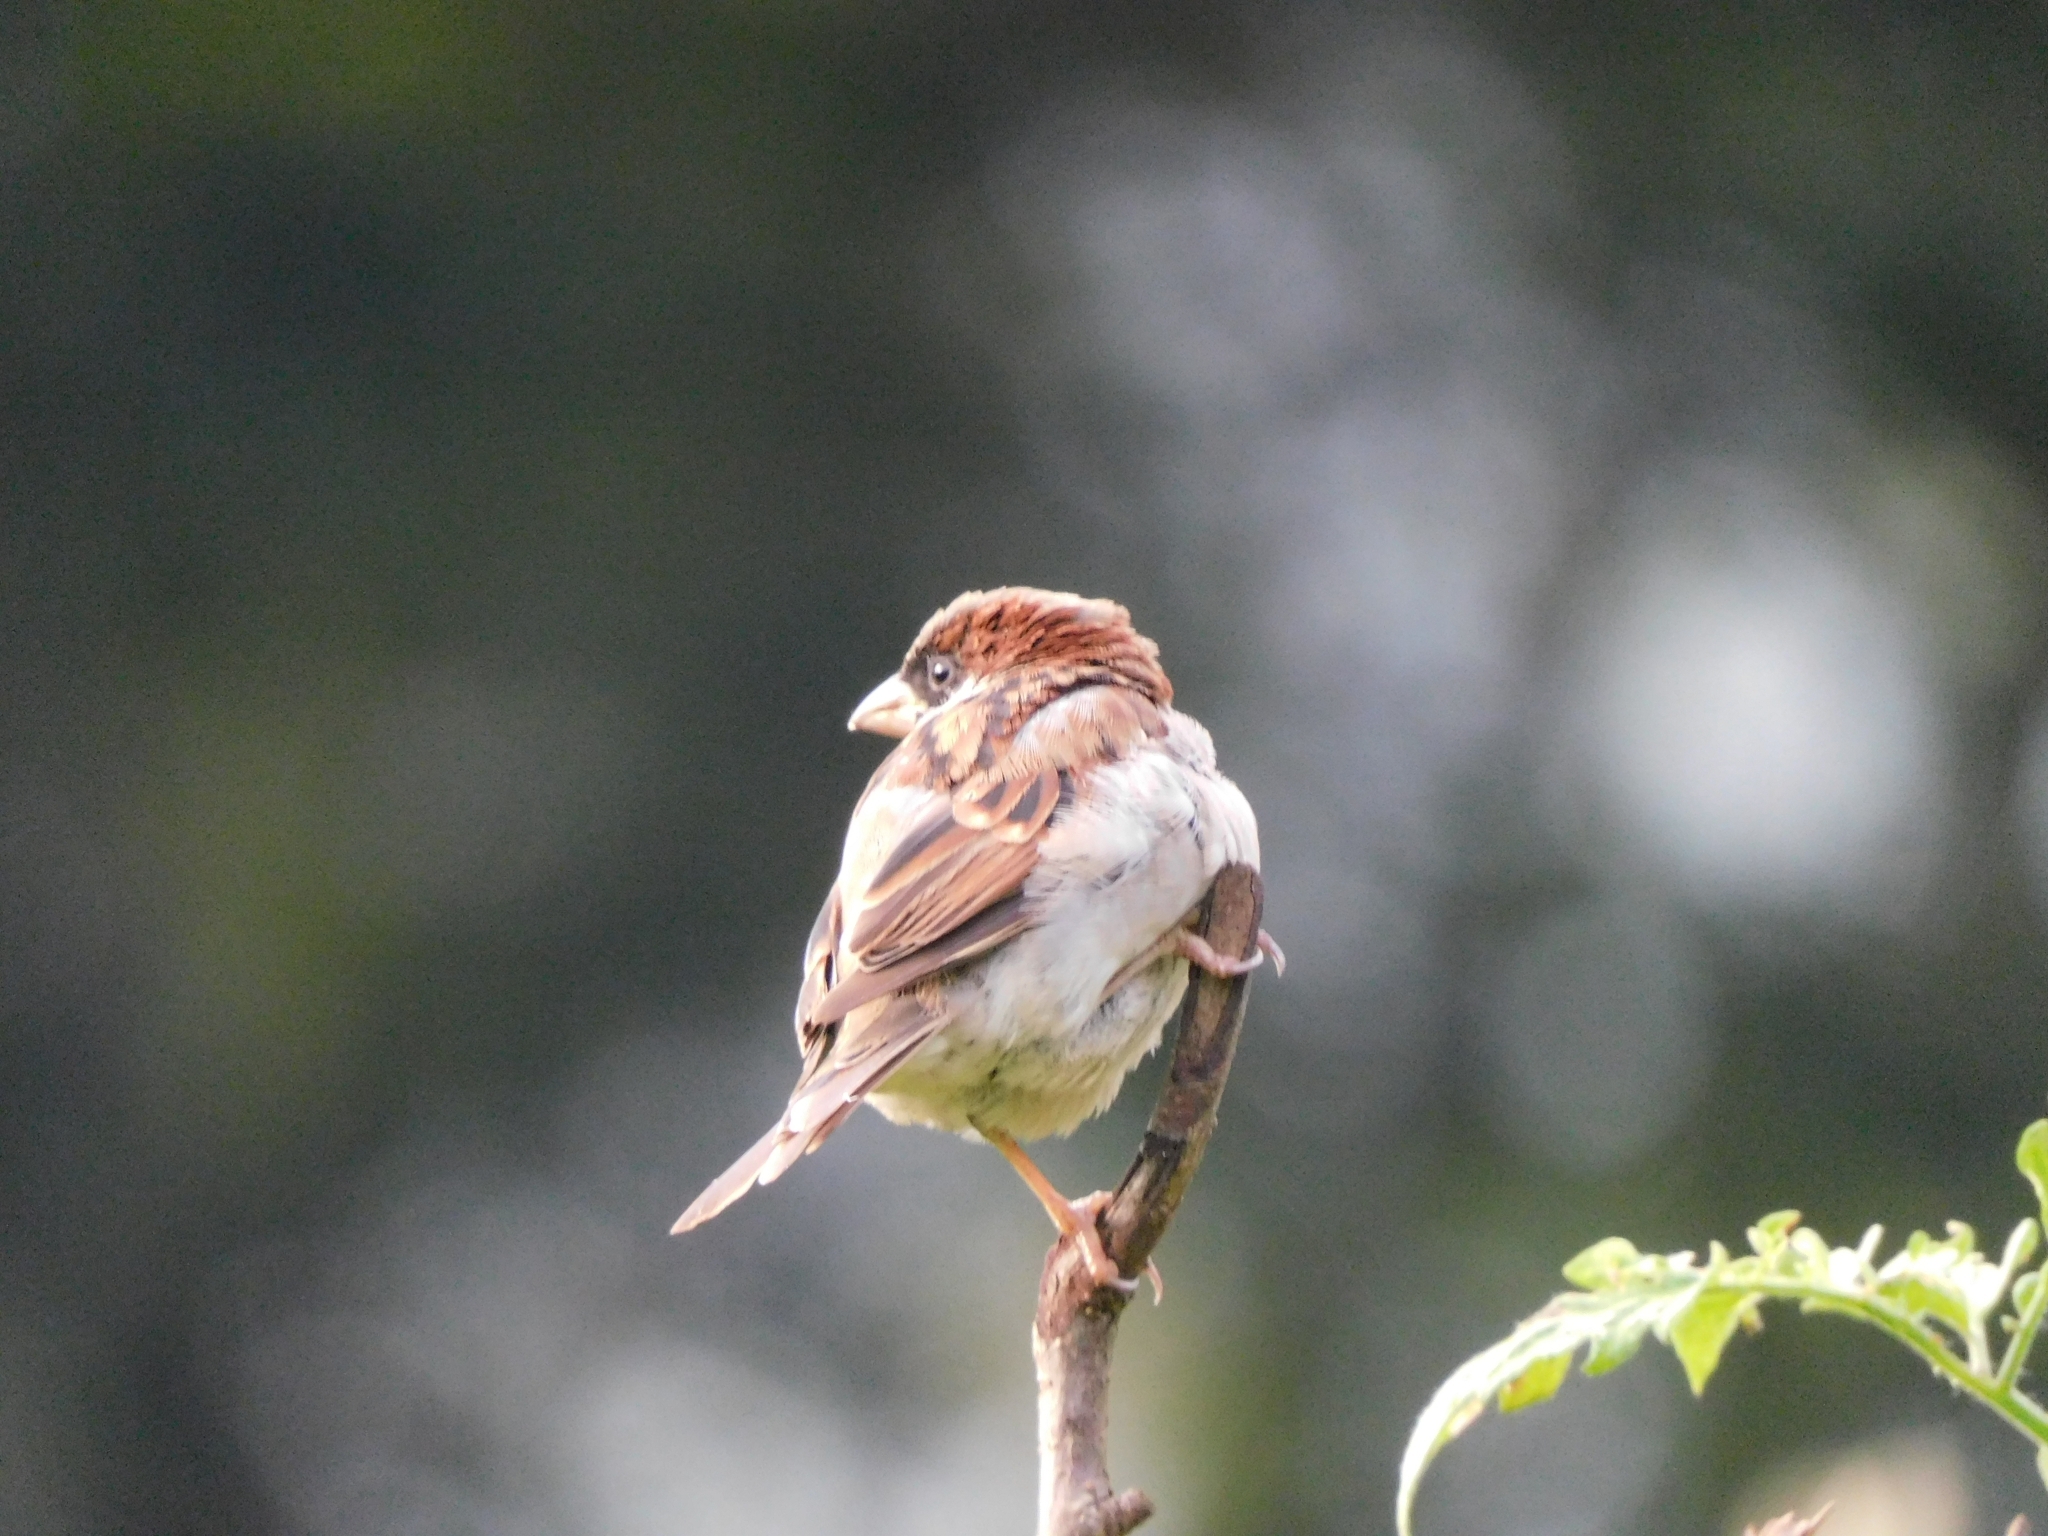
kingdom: Animalia
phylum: Chordata
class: Aves
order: Passeriformes
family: Passeridae
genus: Passer
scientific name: Passer cinnamomeus
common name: Russet sparrow
